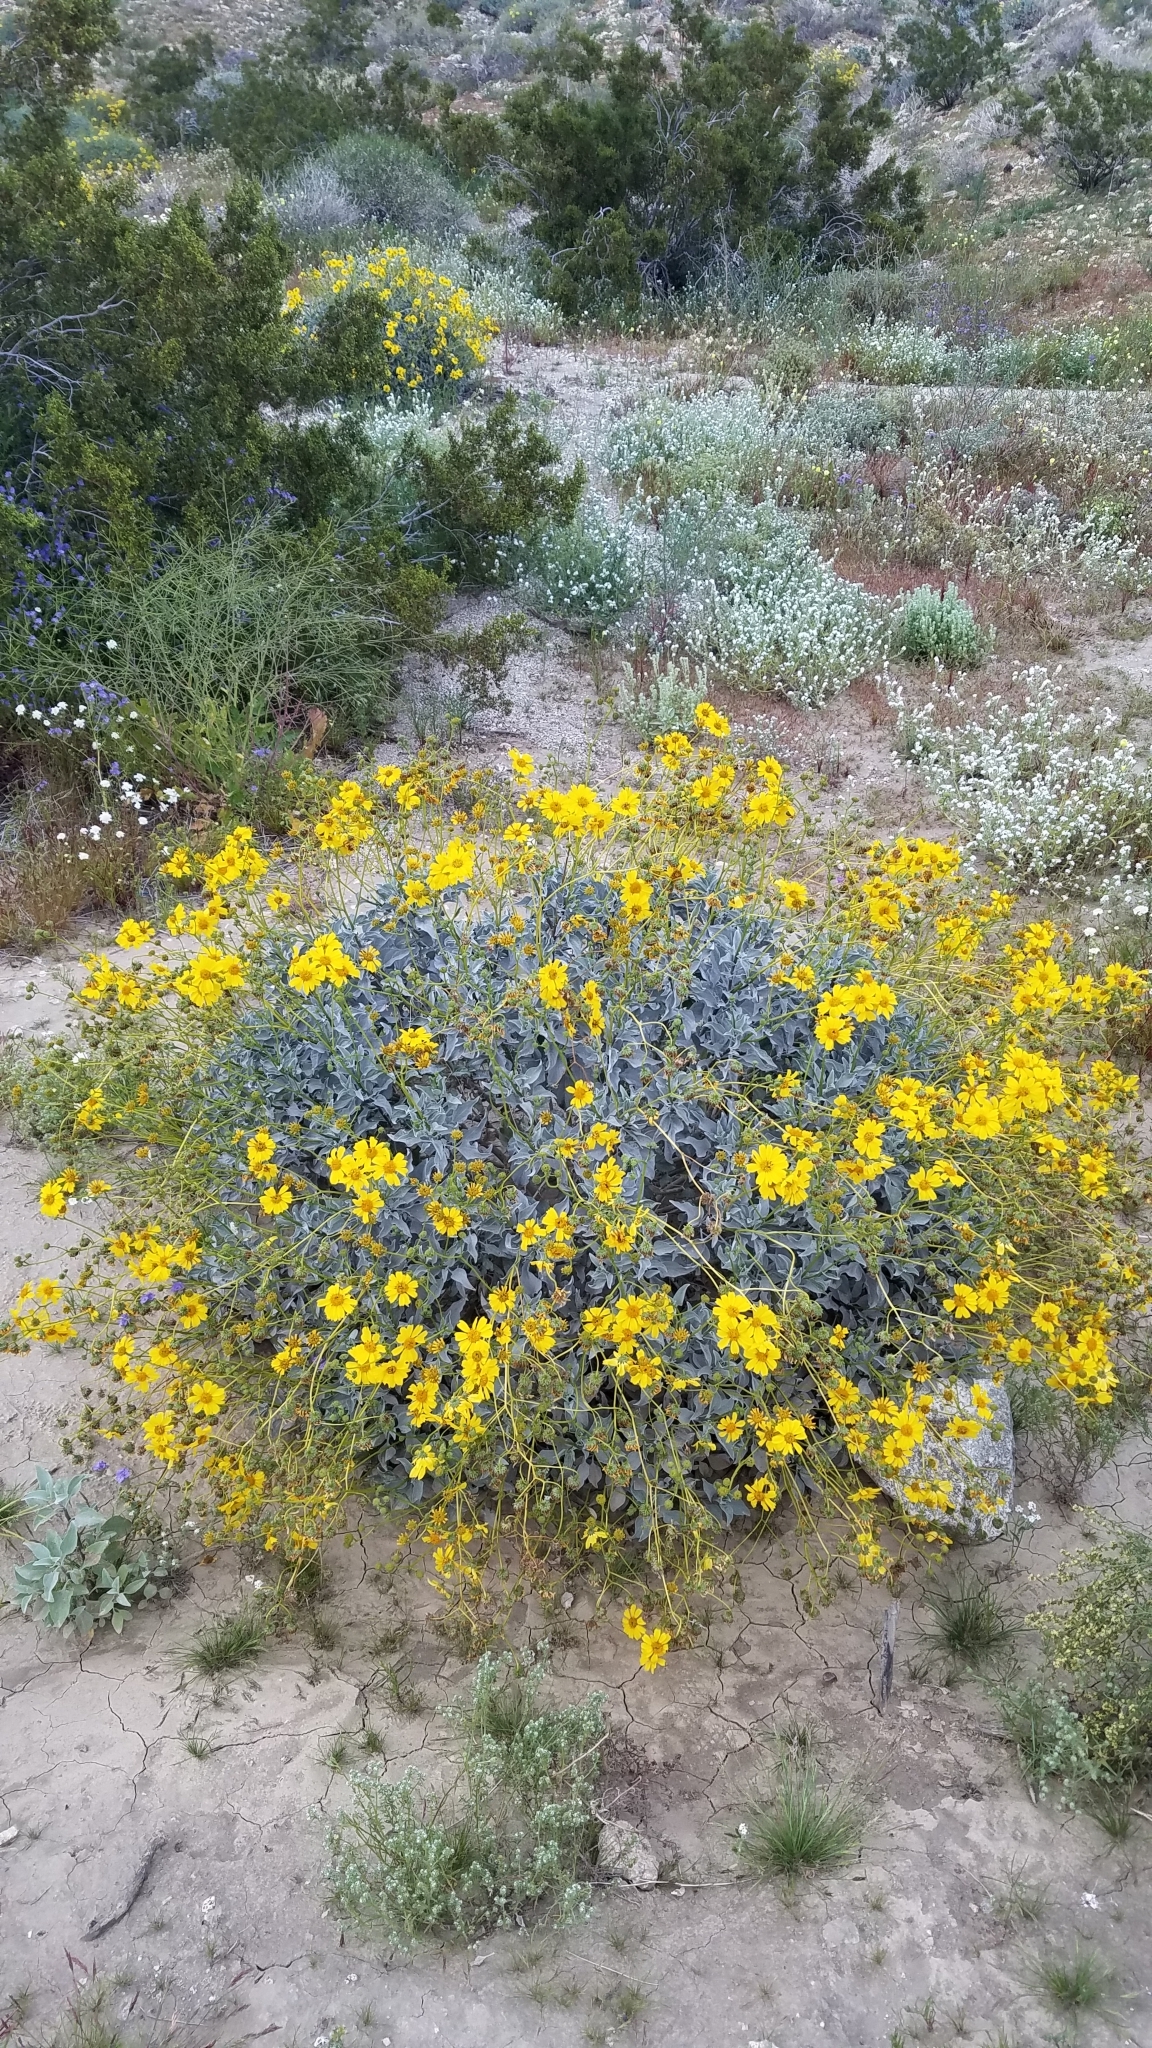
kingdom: Plantae
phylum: Tracheophyta
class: Magnoliopsida
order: Asterales
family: Asteraceae
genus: Encelia
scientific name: Encelia farinosa
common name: Brittlebush
